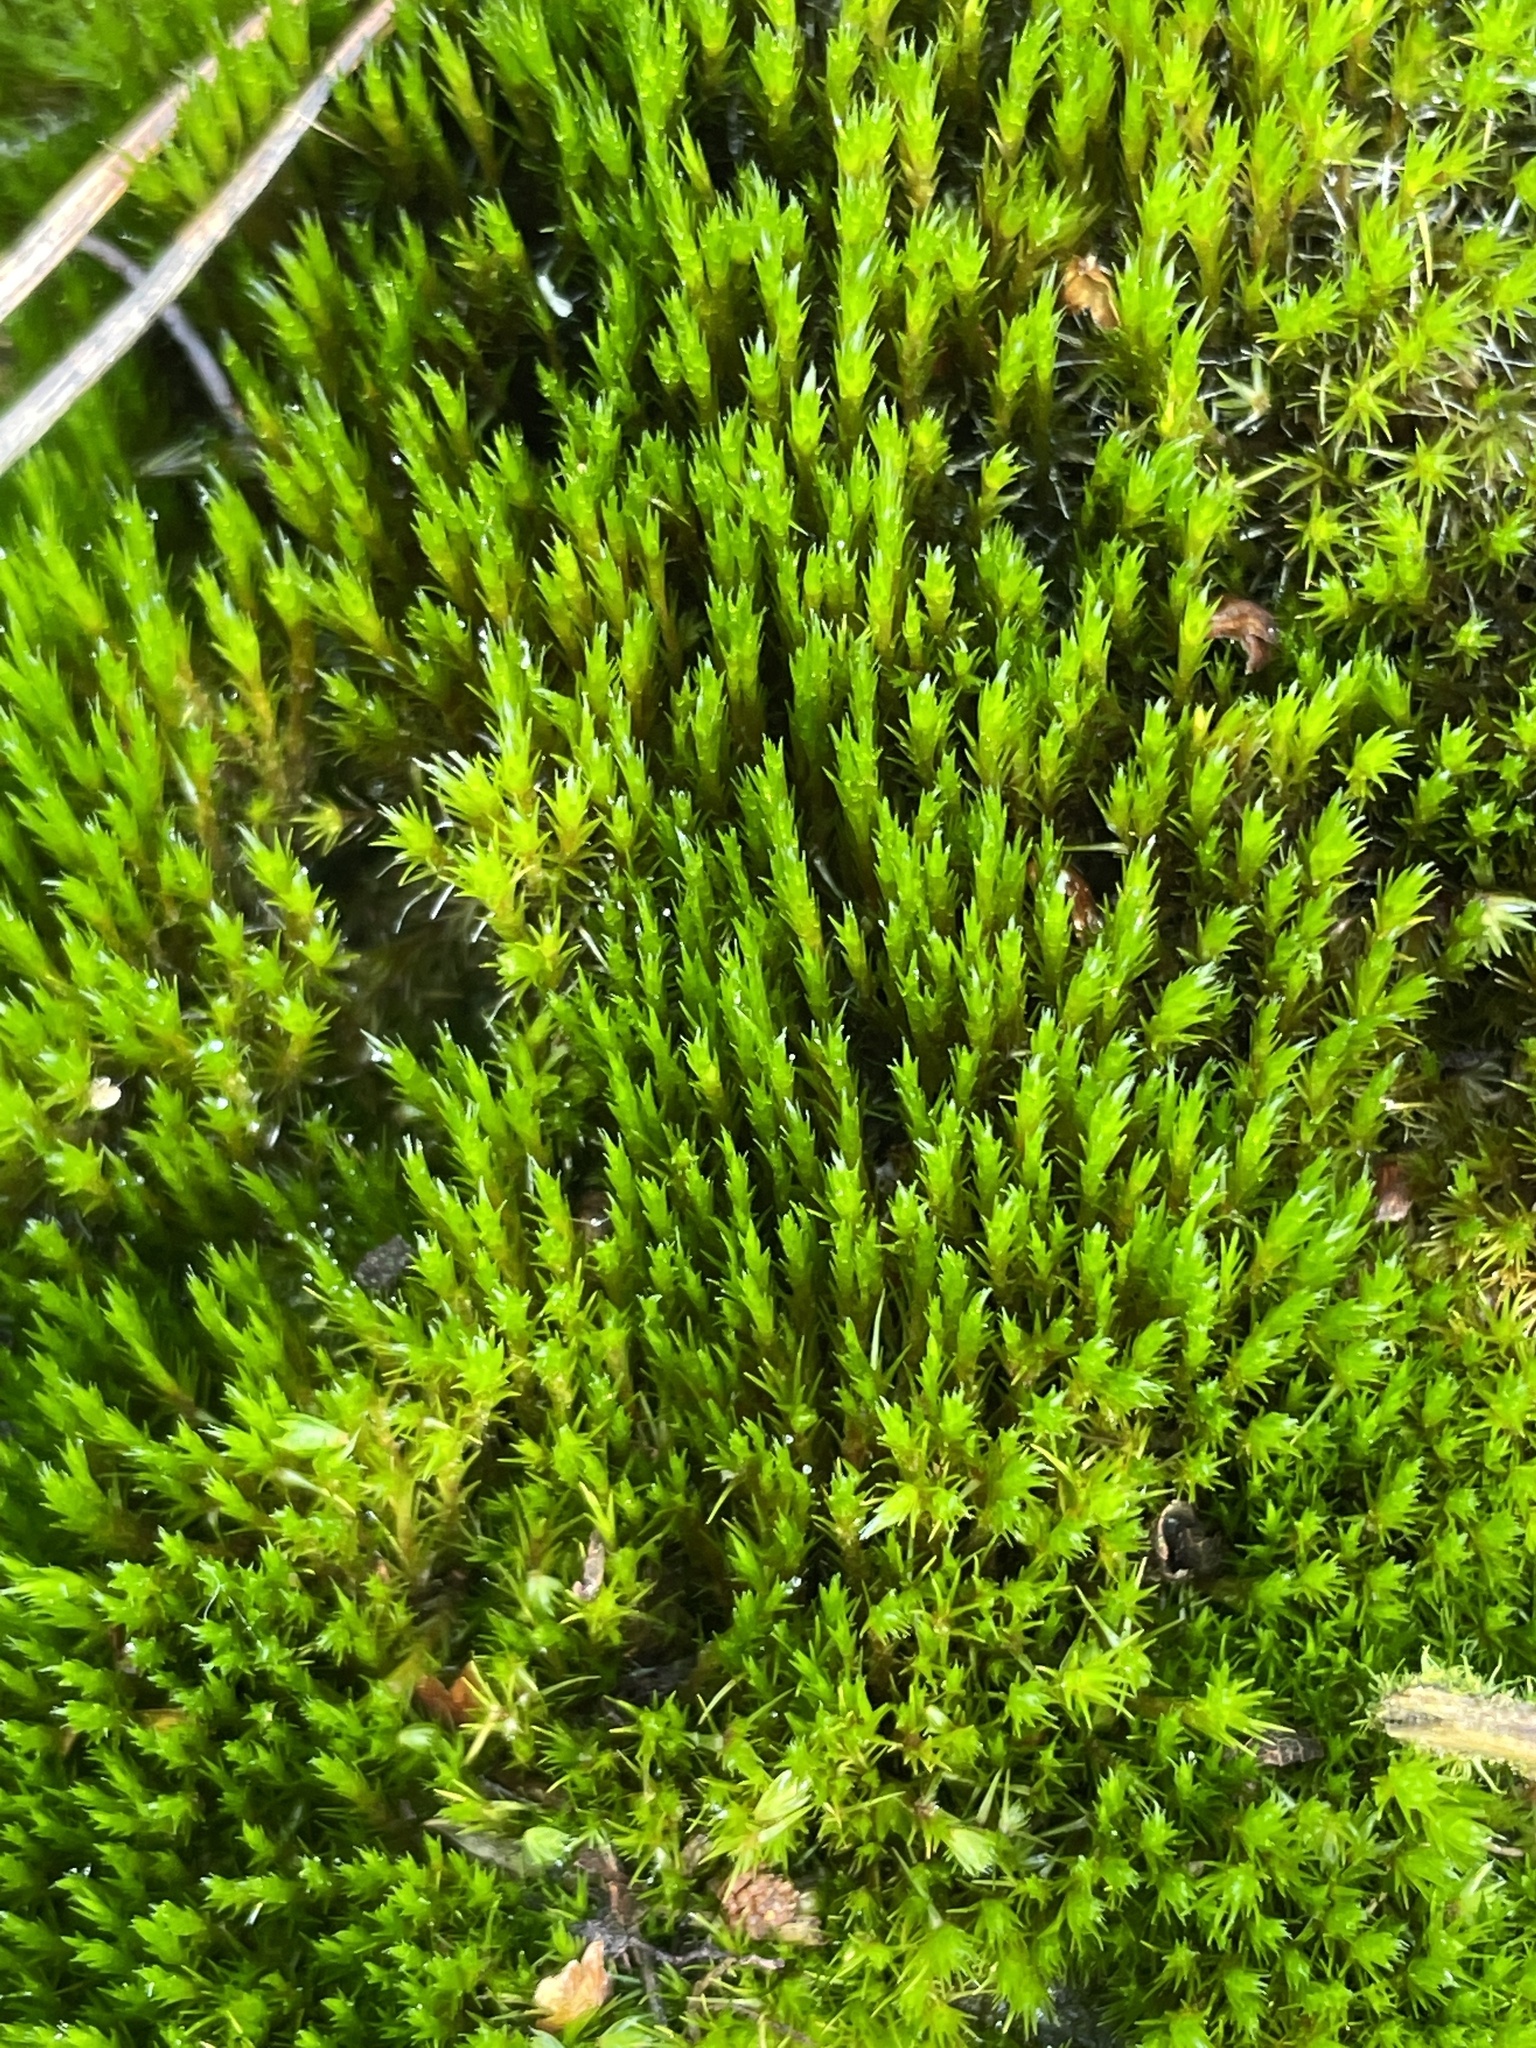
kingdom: Plantae
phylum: Bryophyta
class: Bryopsida
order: Dicranales
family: Leucobryaceae
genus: Campylopus
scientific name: Campylopus introflexus
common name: Heath star moss
